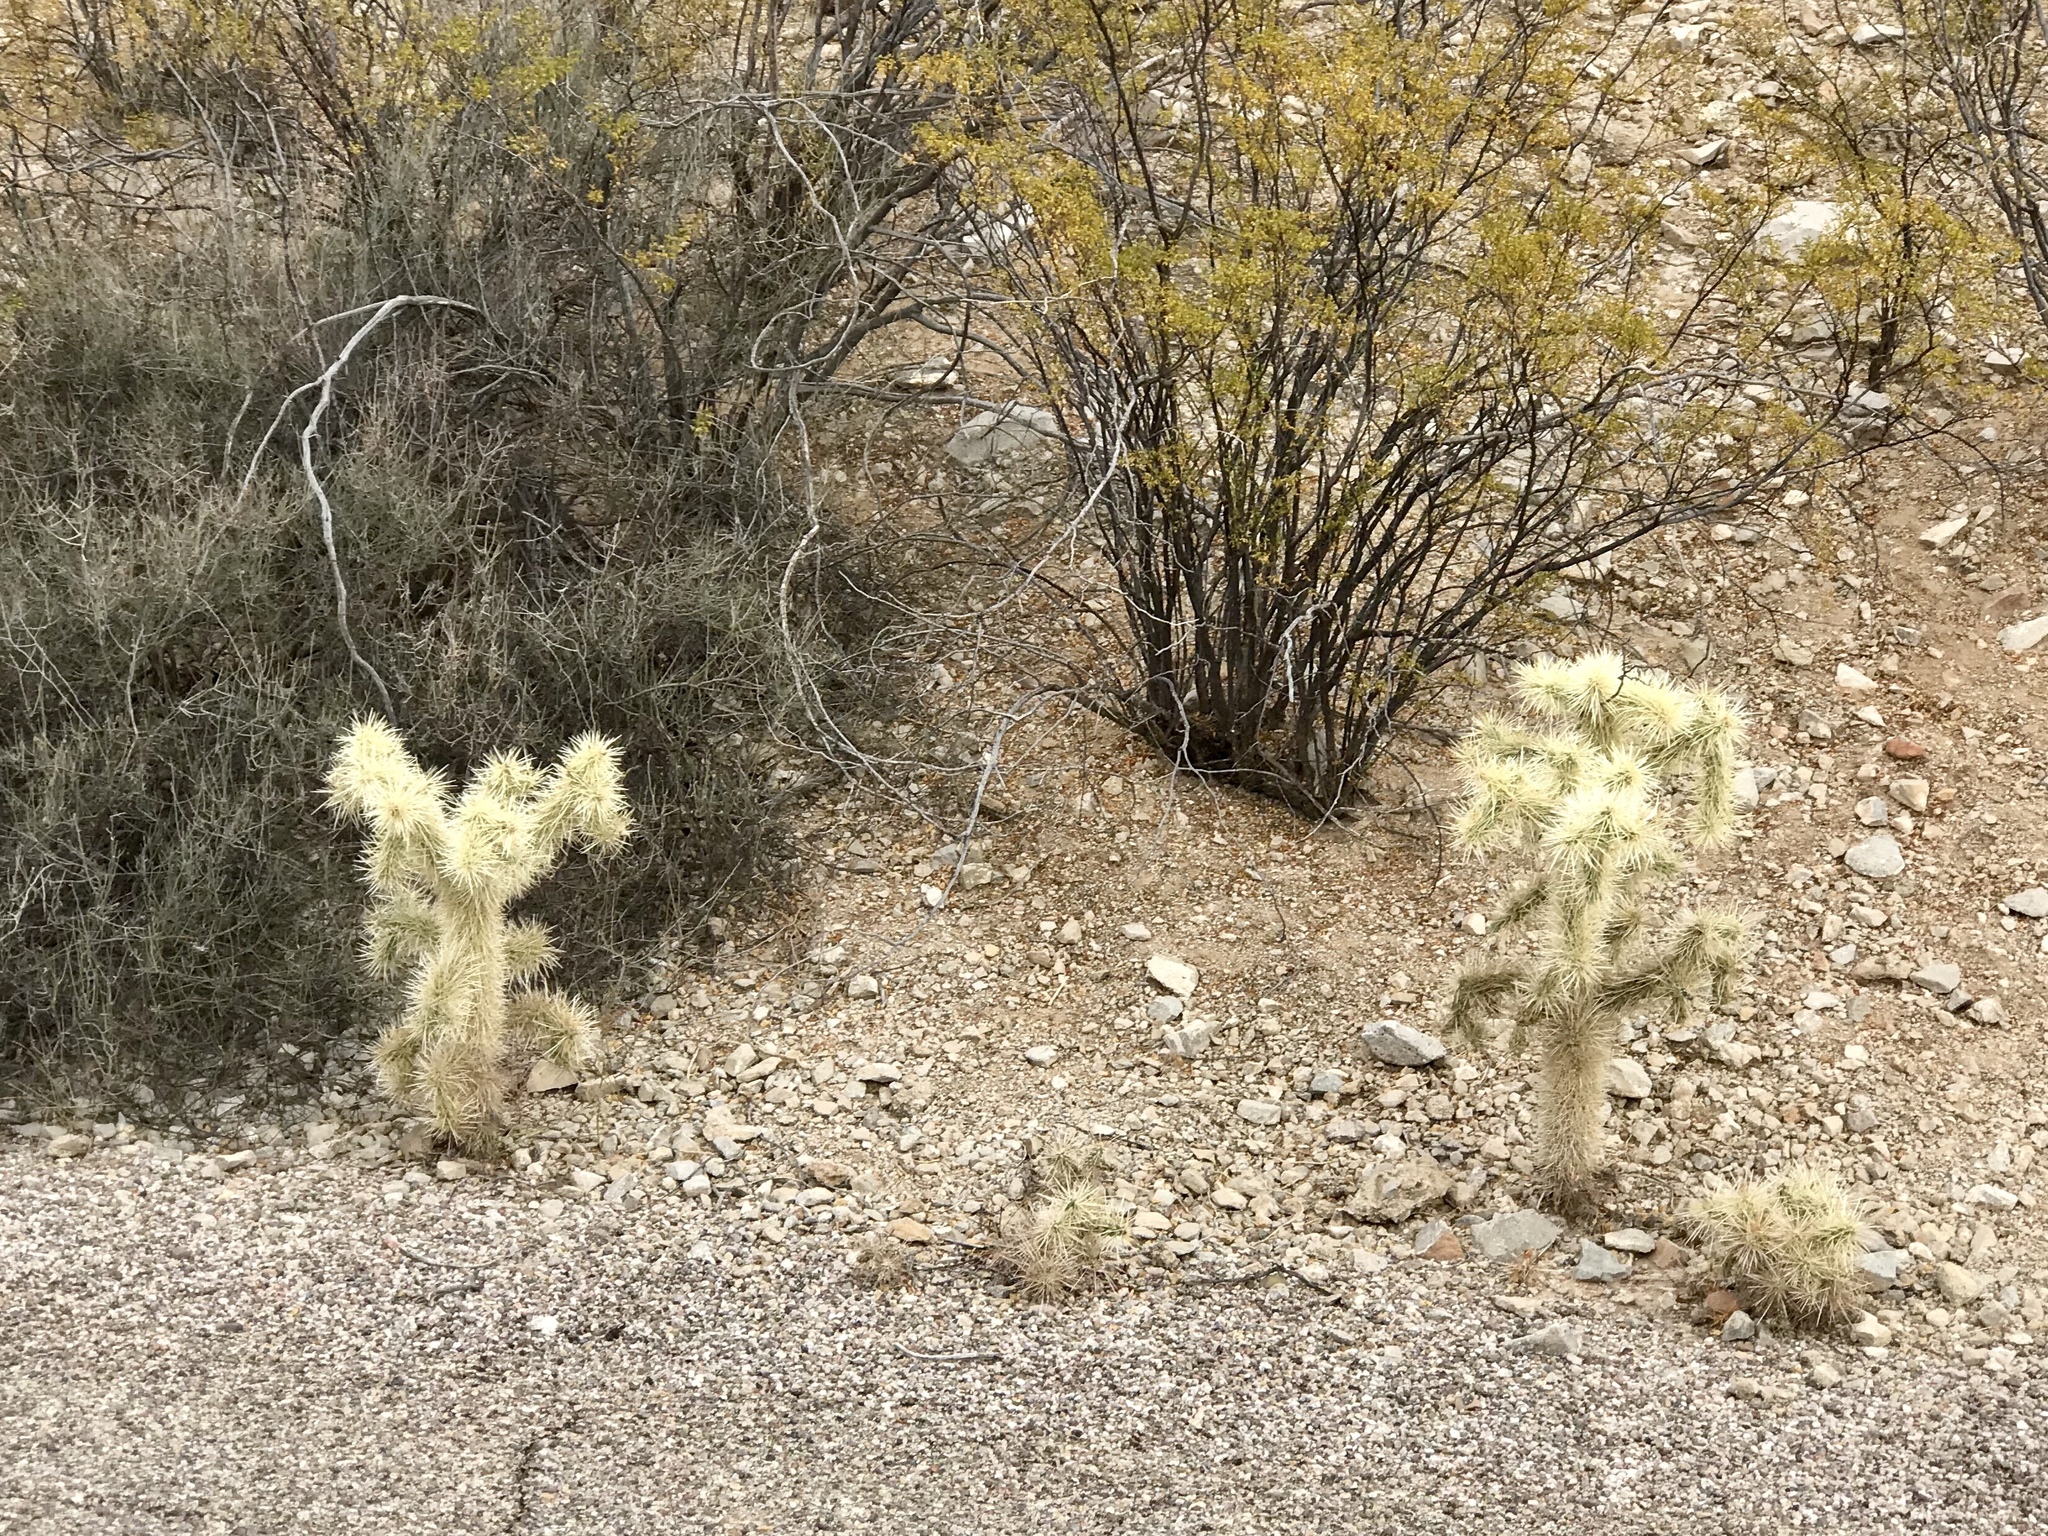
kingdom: Plantae
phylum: Tracheophyta
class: Magnoliopsida
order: Caryophyllales
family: Cactaceae
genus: Cylindropuntia
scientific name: Cylindropuntia fulgida
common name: Jumping cholla
